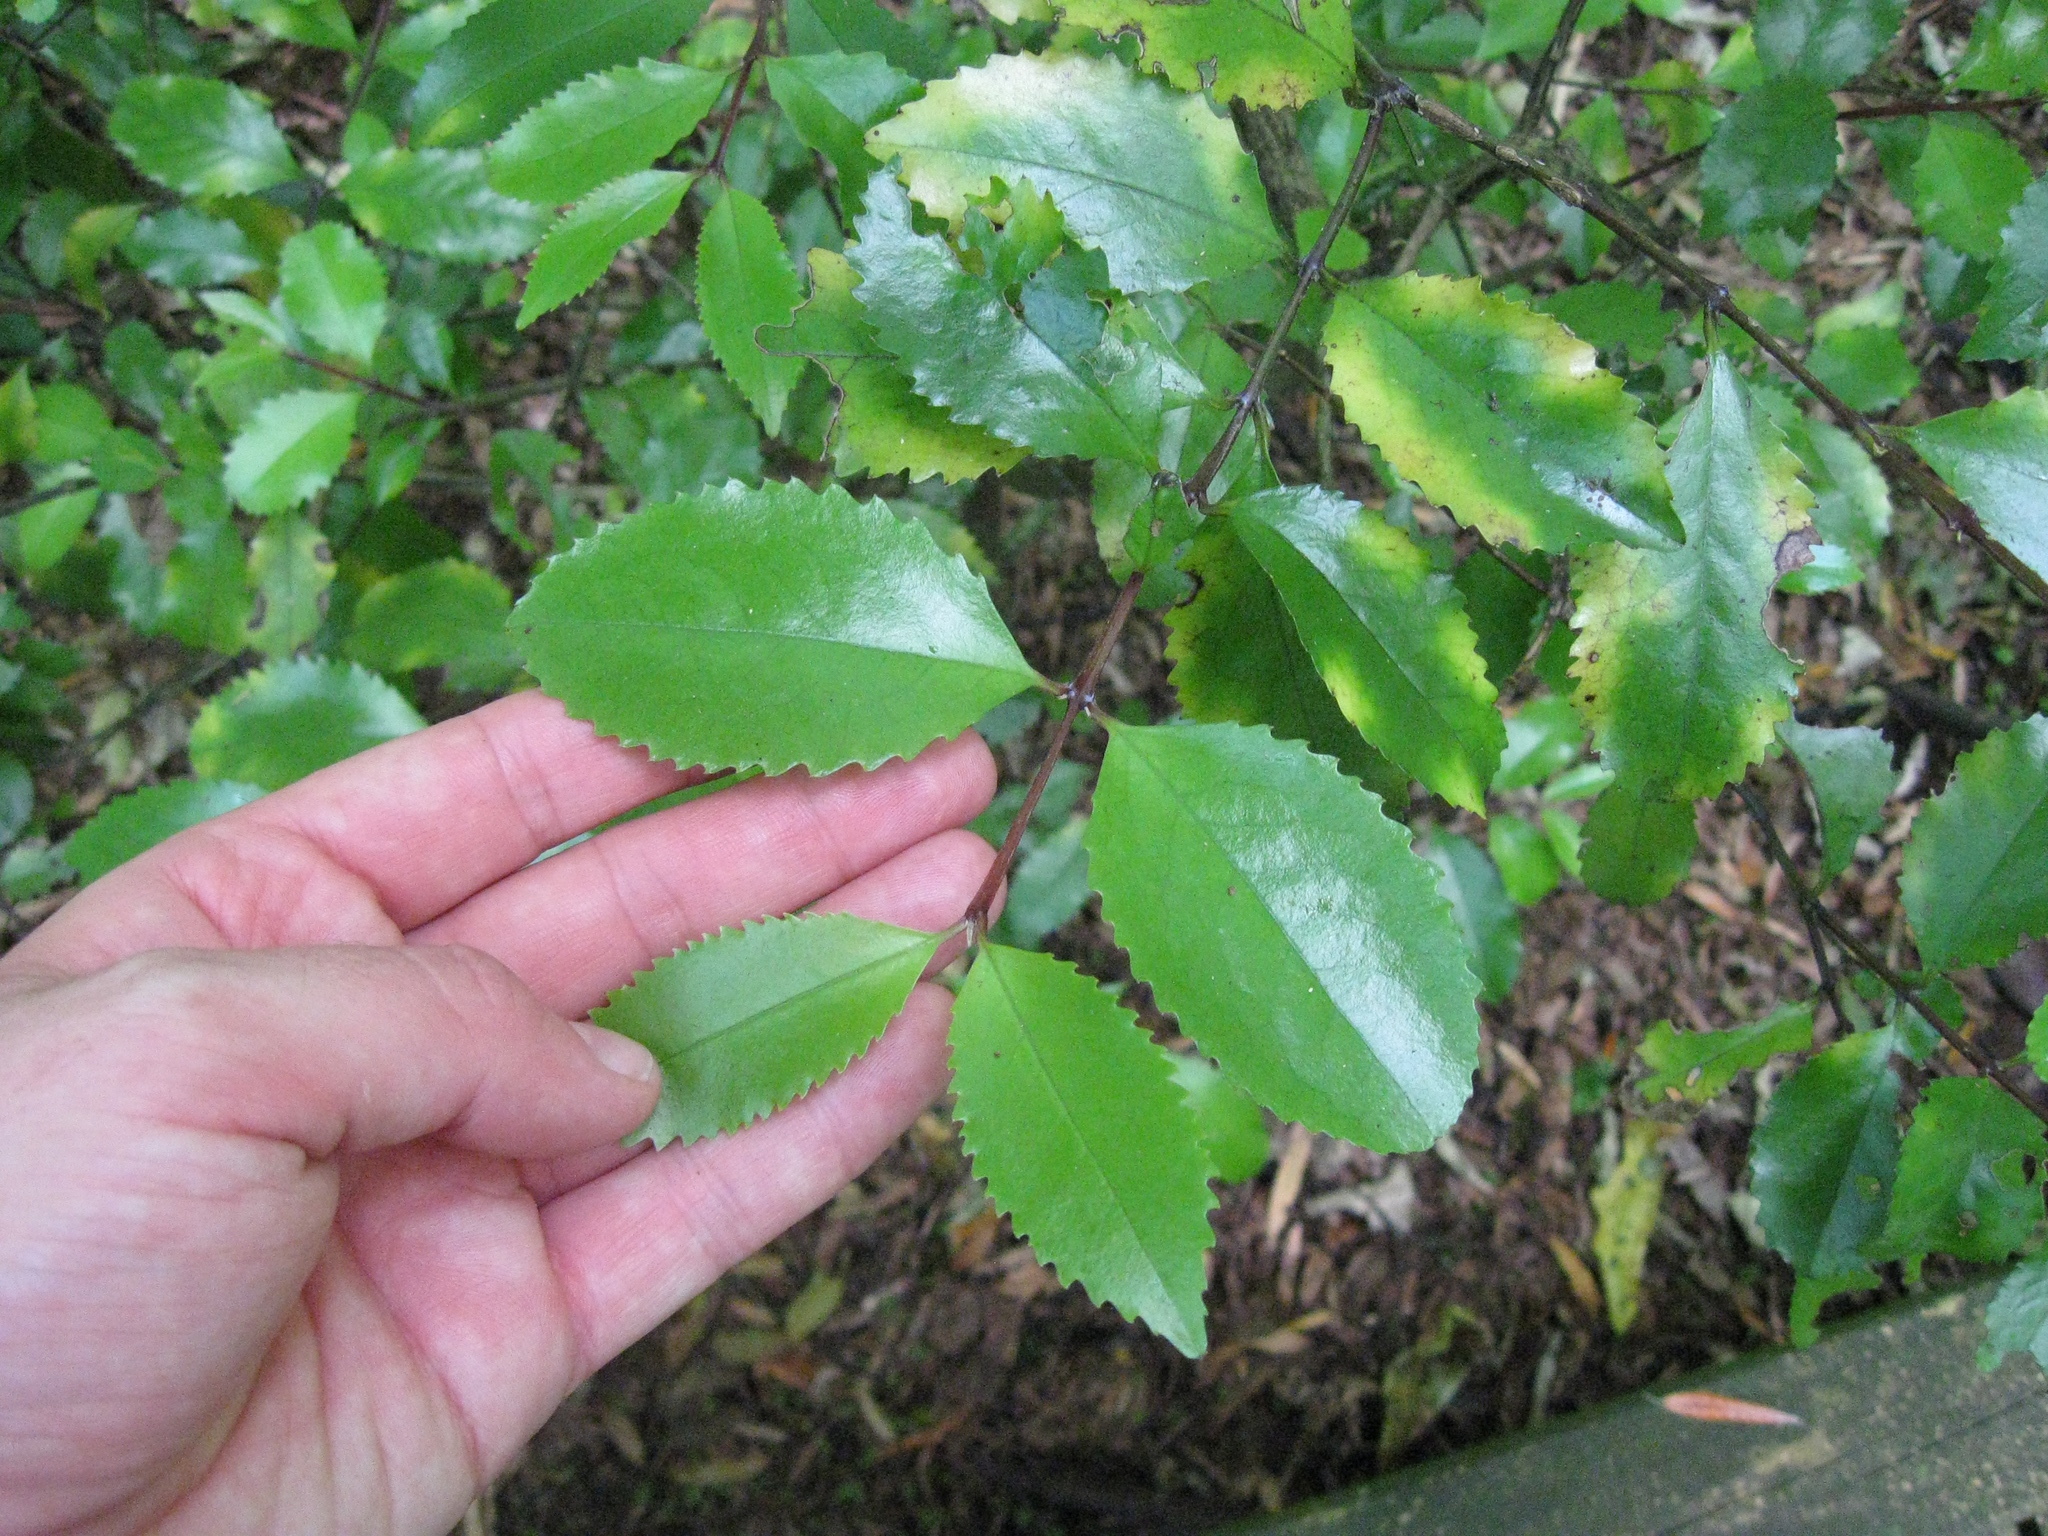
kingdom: Plantae
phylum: Tracheophyta
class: Magnoliopsida
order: Laurales
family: Atherospermataceae
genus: Laurelia
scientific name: Laurelia novae-zelandiae
